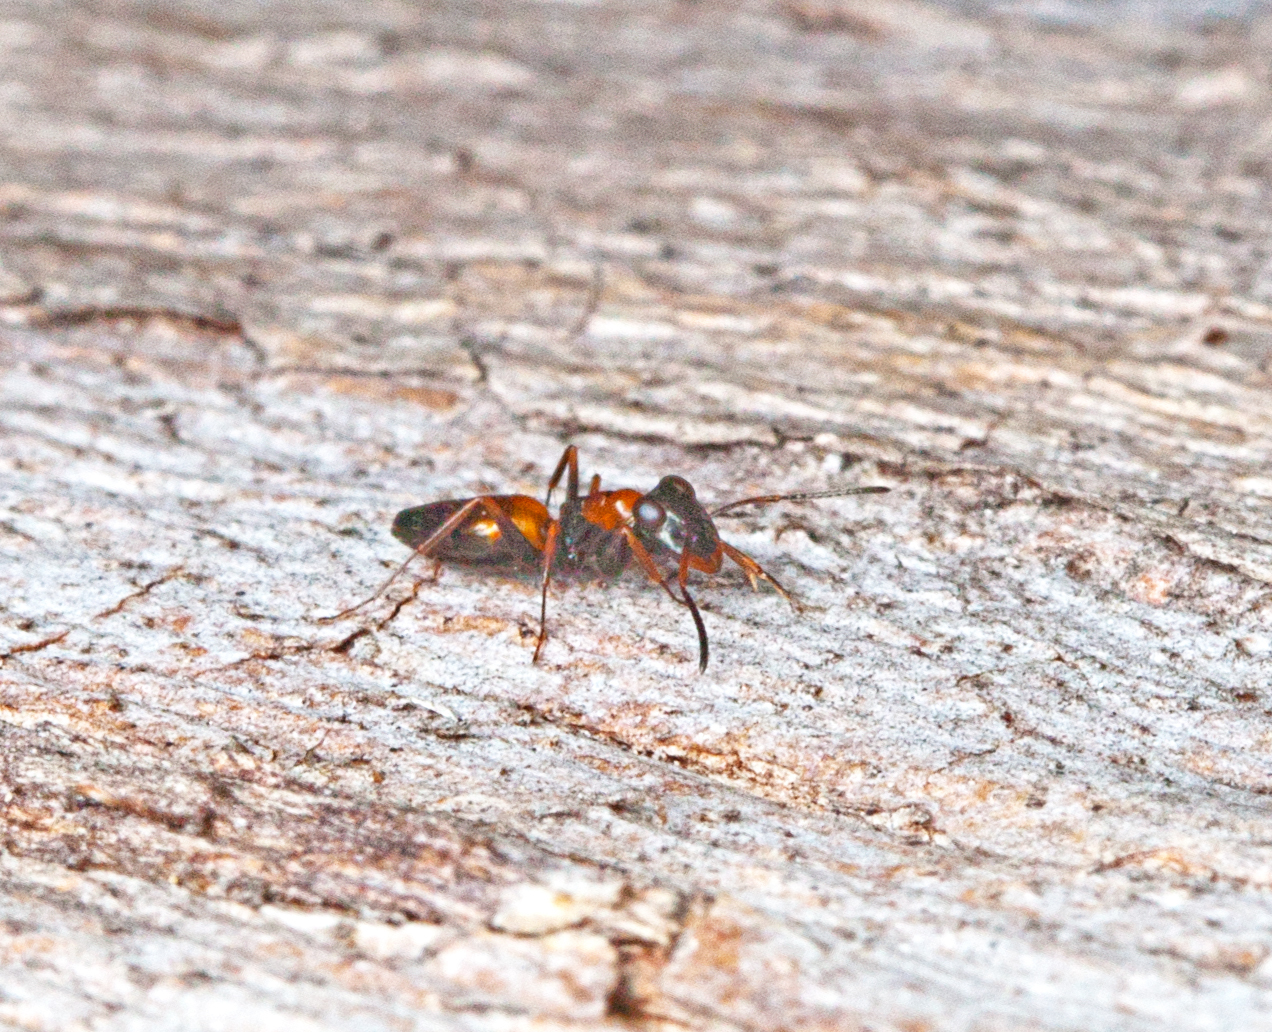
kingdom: Animalia
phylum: Arthropoda
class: Insecta
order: Hymenoptera
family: Formicidae
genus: Opisthopsis
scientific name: Opisthopsis pictus
